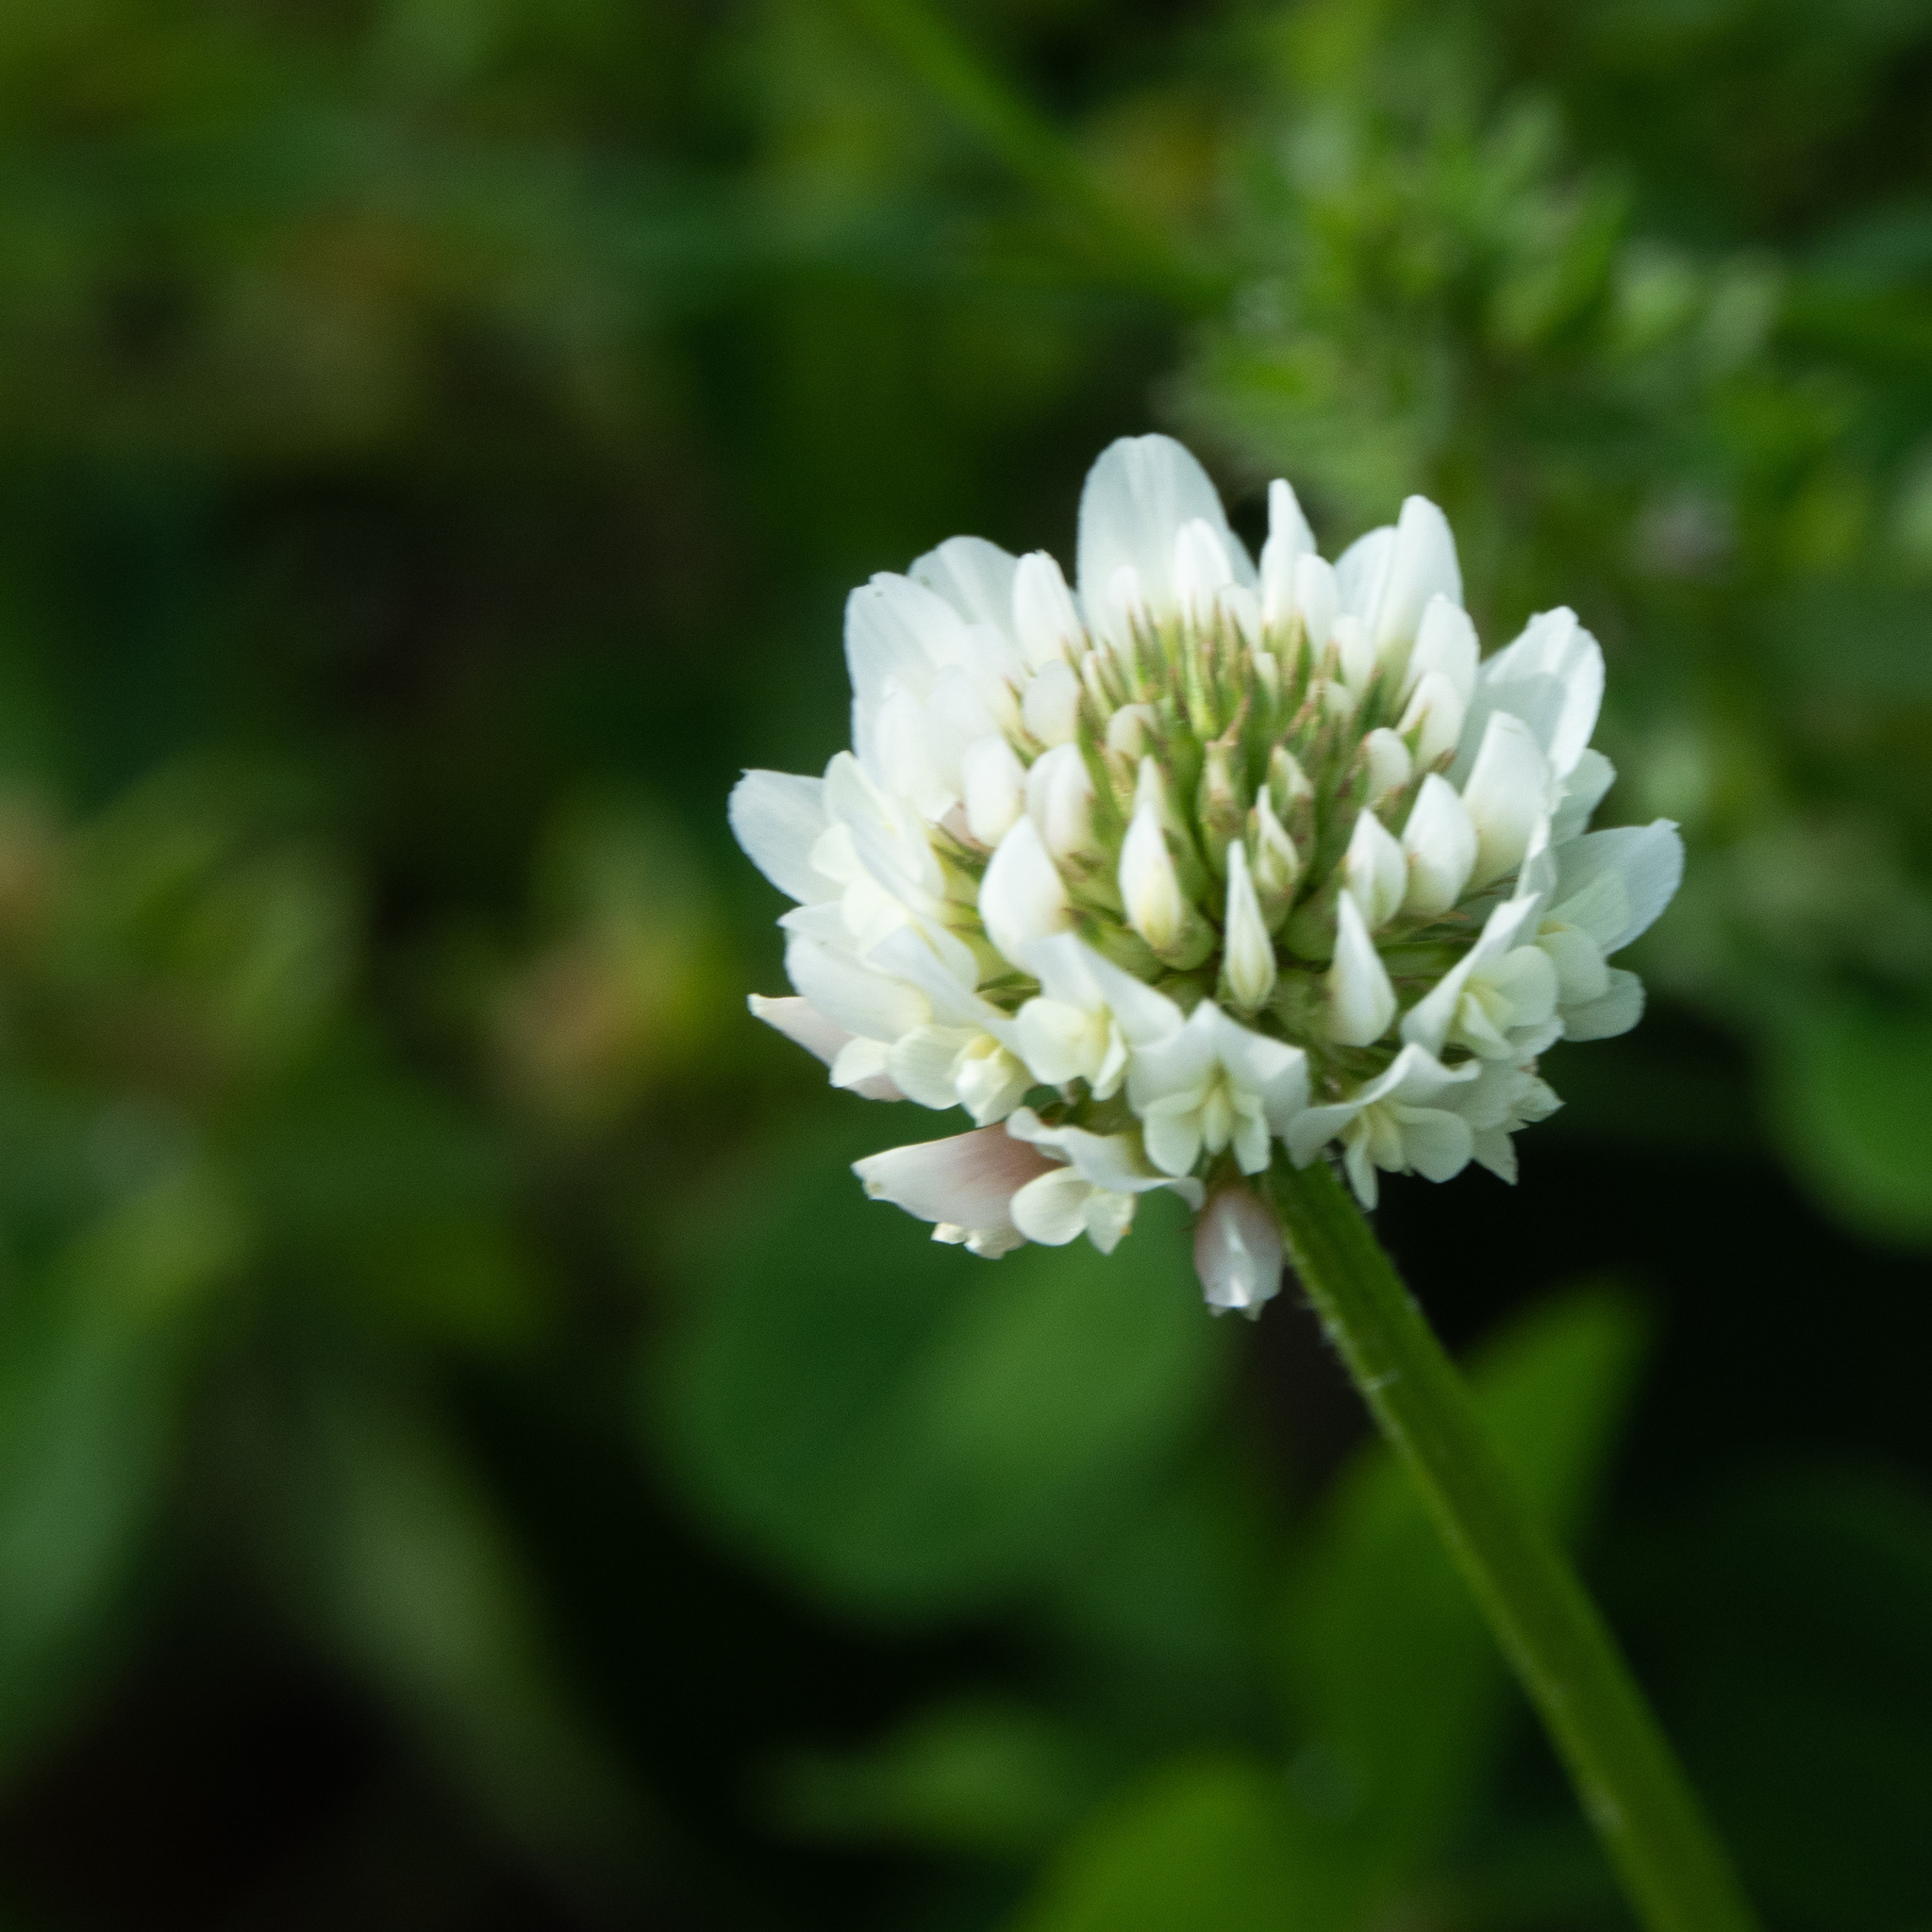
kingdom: Plantae
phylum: Tracheophyta
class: Magnoliopsida
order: Fabales
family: Fabaceae
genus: Trifolium
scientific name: Trifolium repens
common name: White clover
